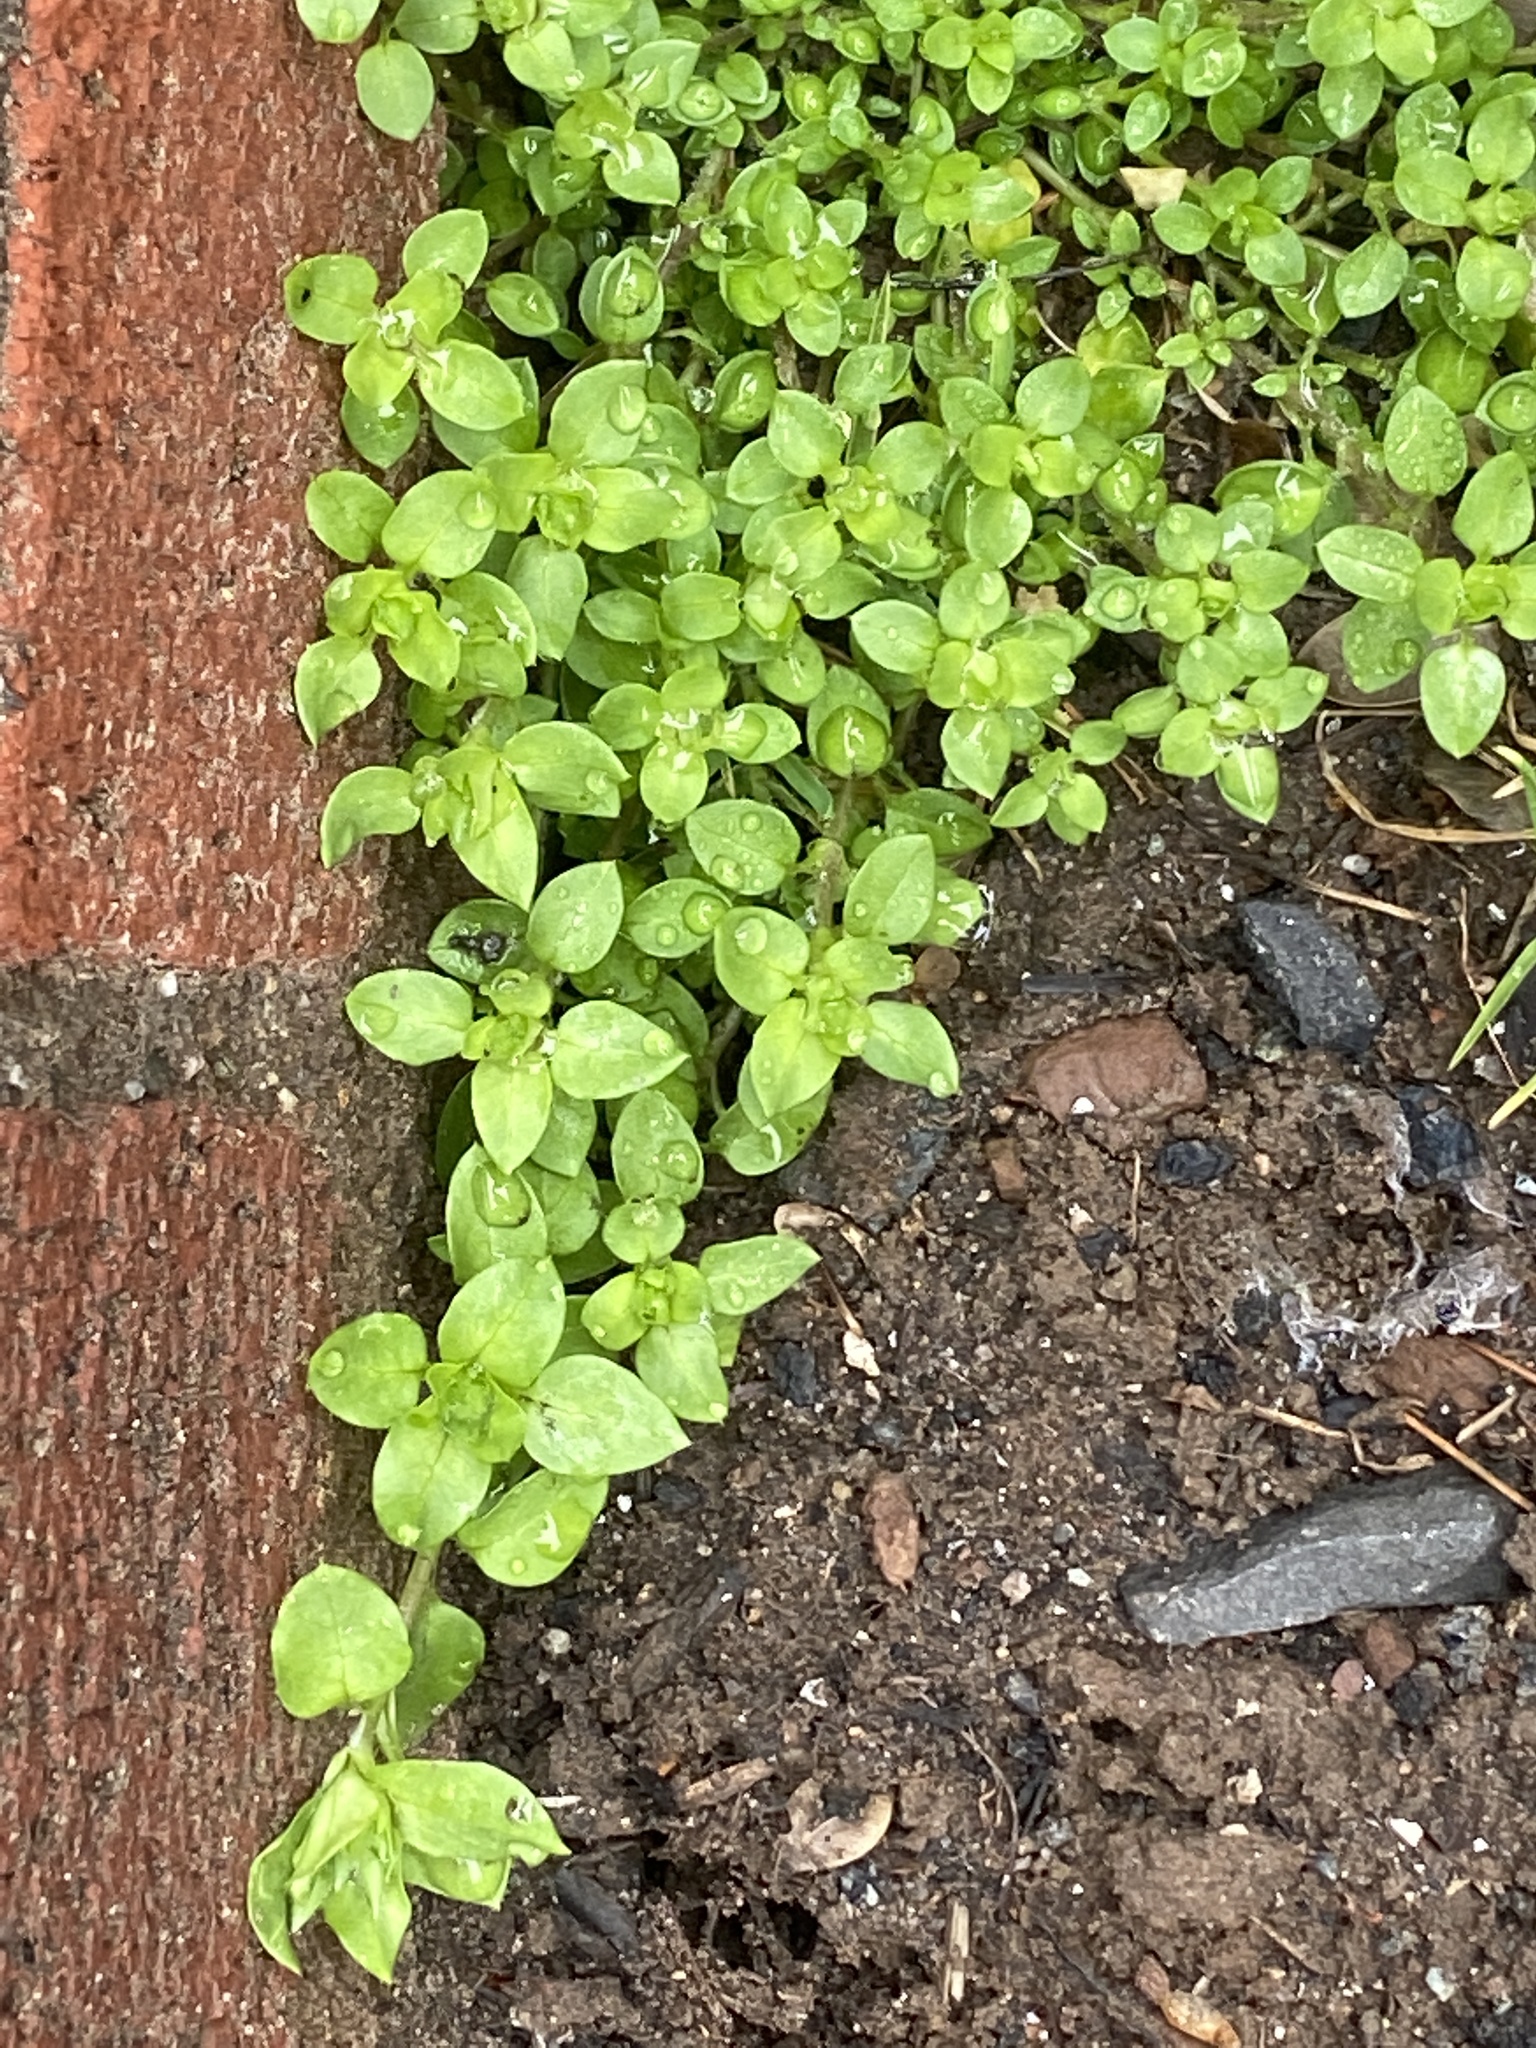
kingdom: Plantae
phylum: Tracheophyta
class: Magnoliopsida
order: Caryophyllales
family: Caryophyllaceae
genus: Stellaria
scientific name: Stellaria media
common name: Common chickweed
